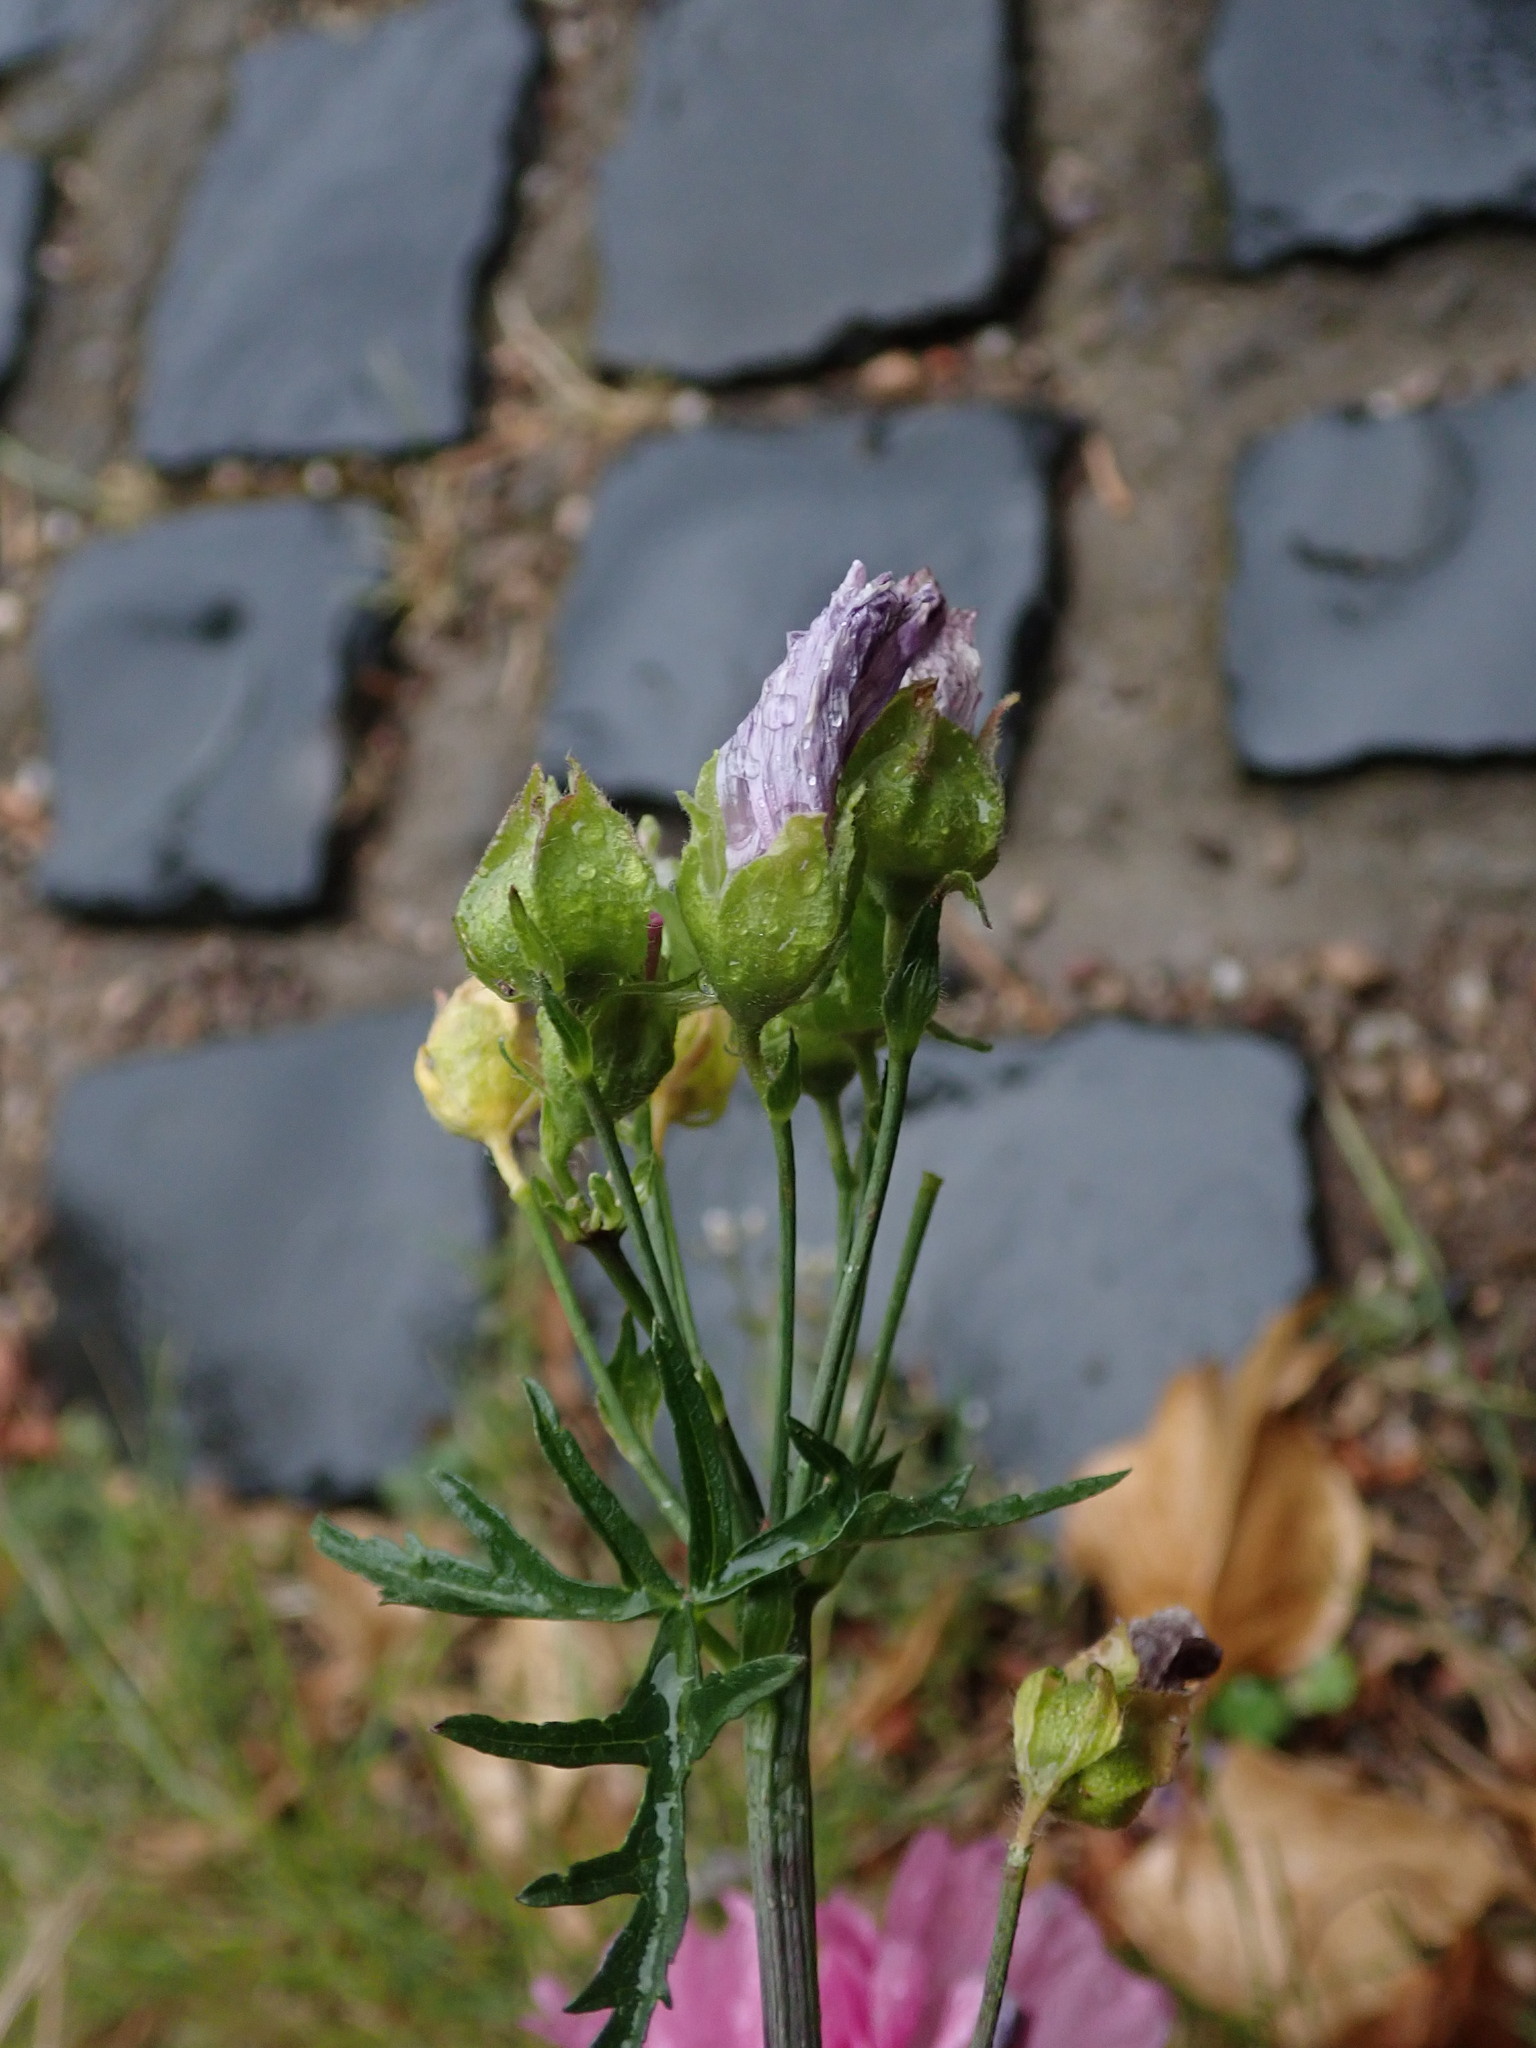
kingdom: Plantae
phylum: Tracheophyta
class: Magnoliopsida
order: Malvales
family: Malvaceae
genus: Malva
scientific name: Malva moschata
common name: Musk mallow
